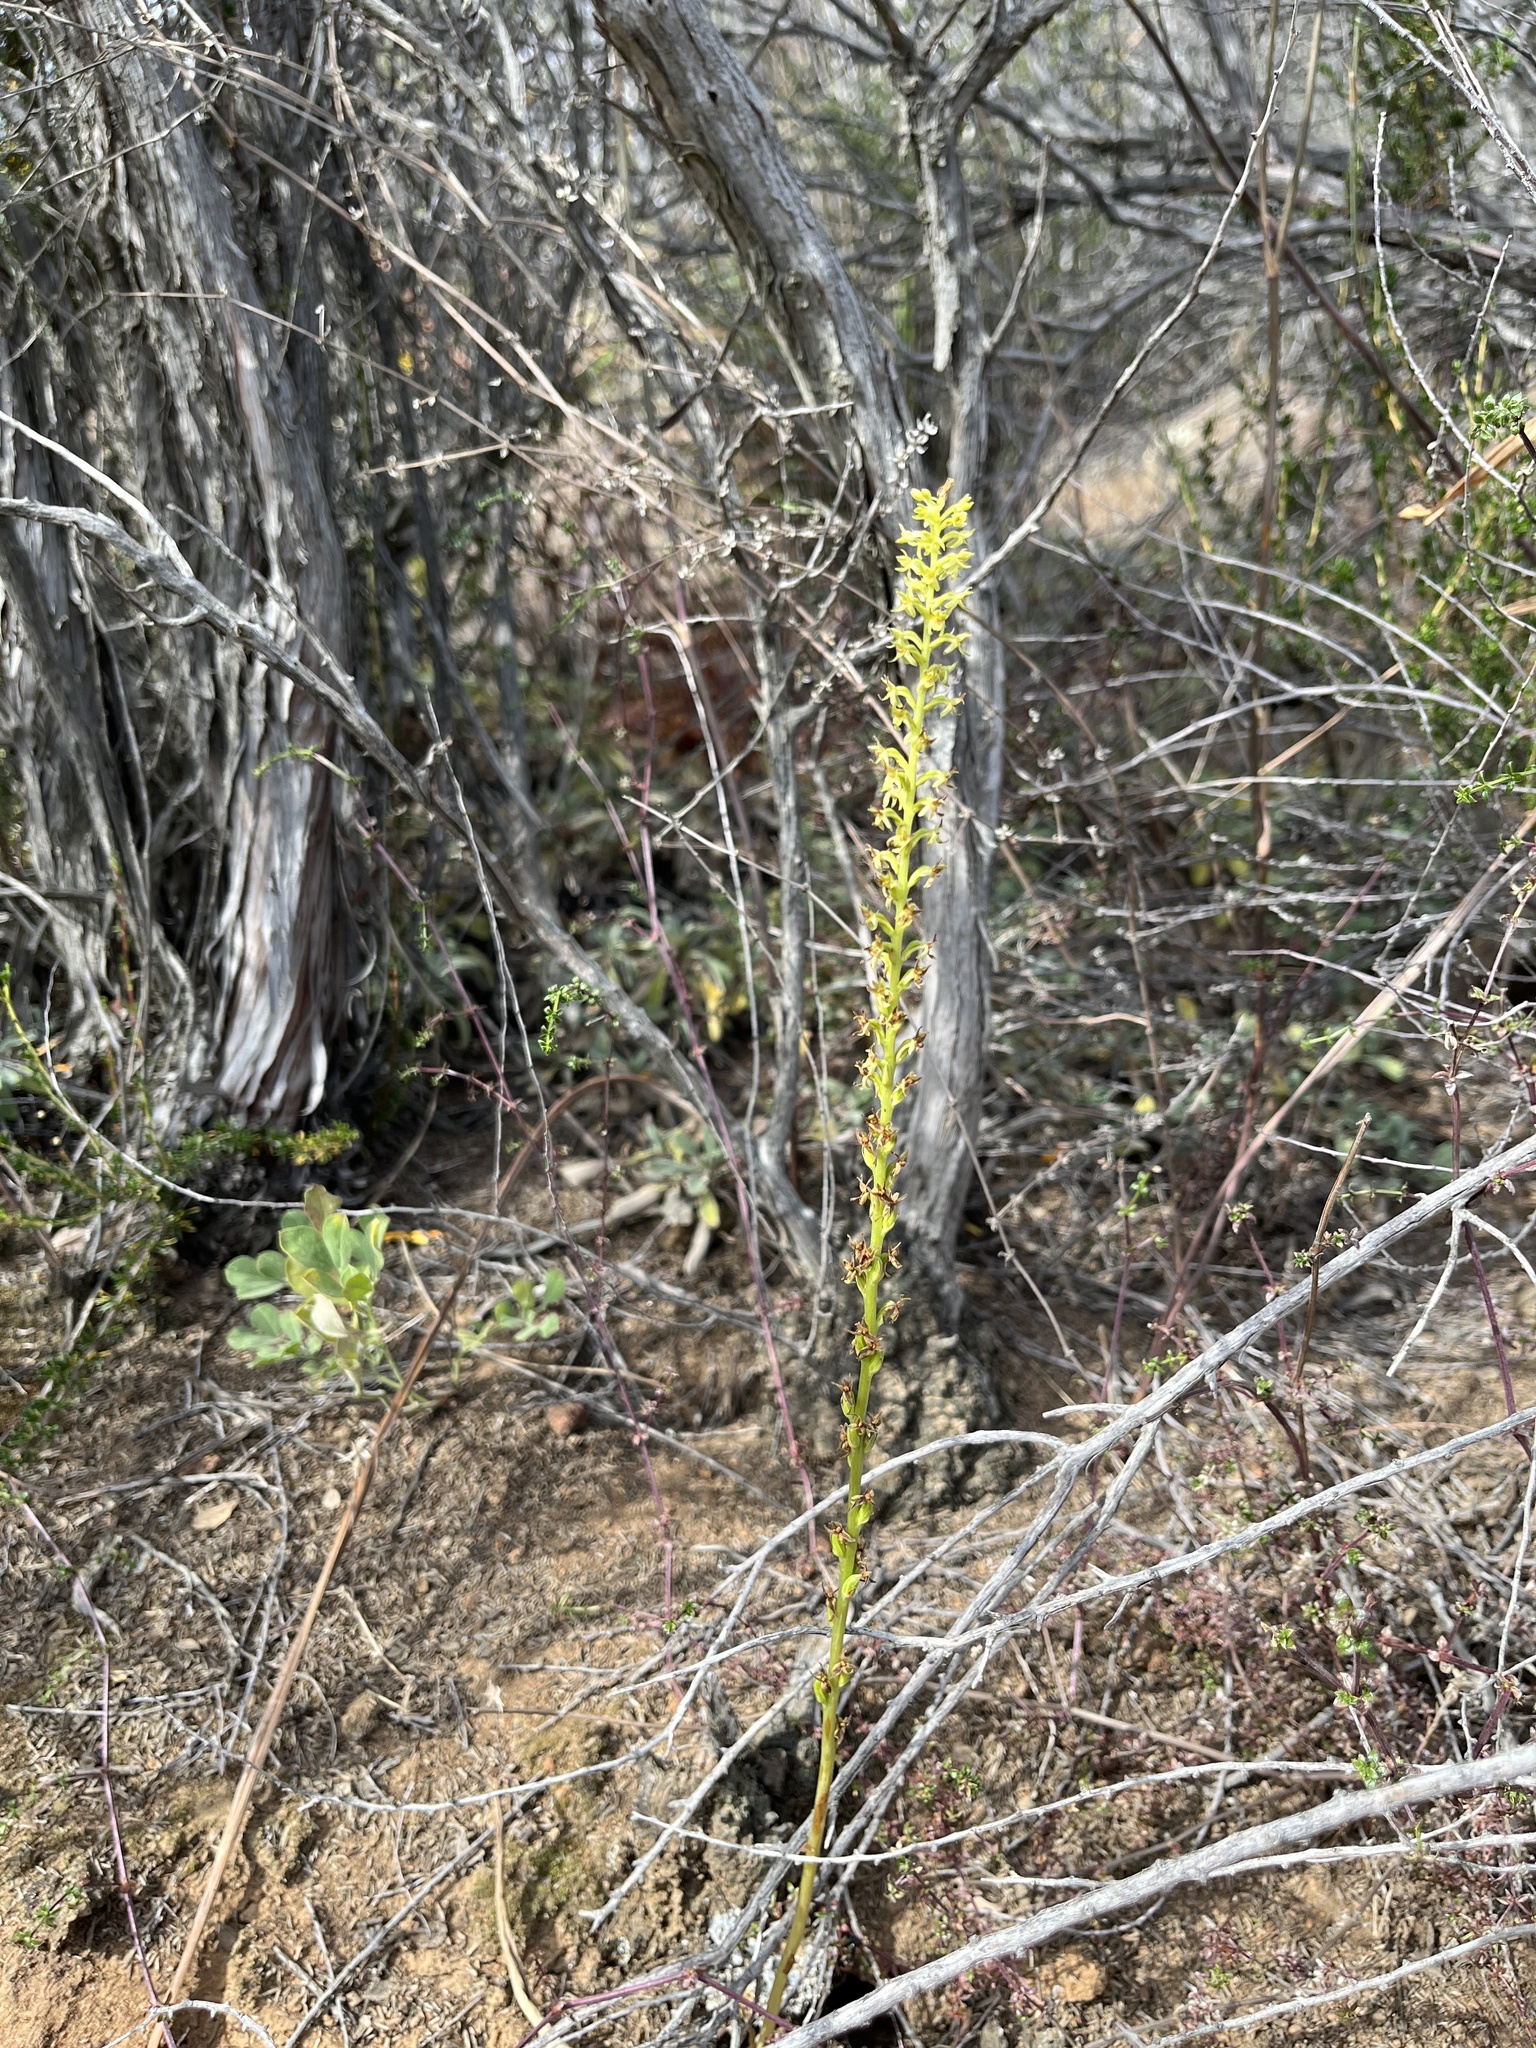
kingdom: Plantae
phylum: Tracheophyta
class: Liliopsida
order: Asparagales
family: Orchidaceae
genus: Platanthera
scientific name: Platanthera unalascensis
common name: Alaska bog orchid
